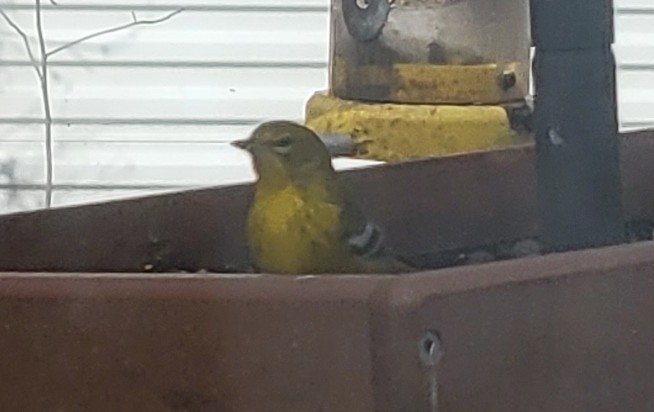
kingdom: Animalia
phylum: Chordata
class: Aves
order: Passeriformes
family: Parulidae
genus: Setophaga
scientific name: Setophaga pinus
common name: Pine warbler
